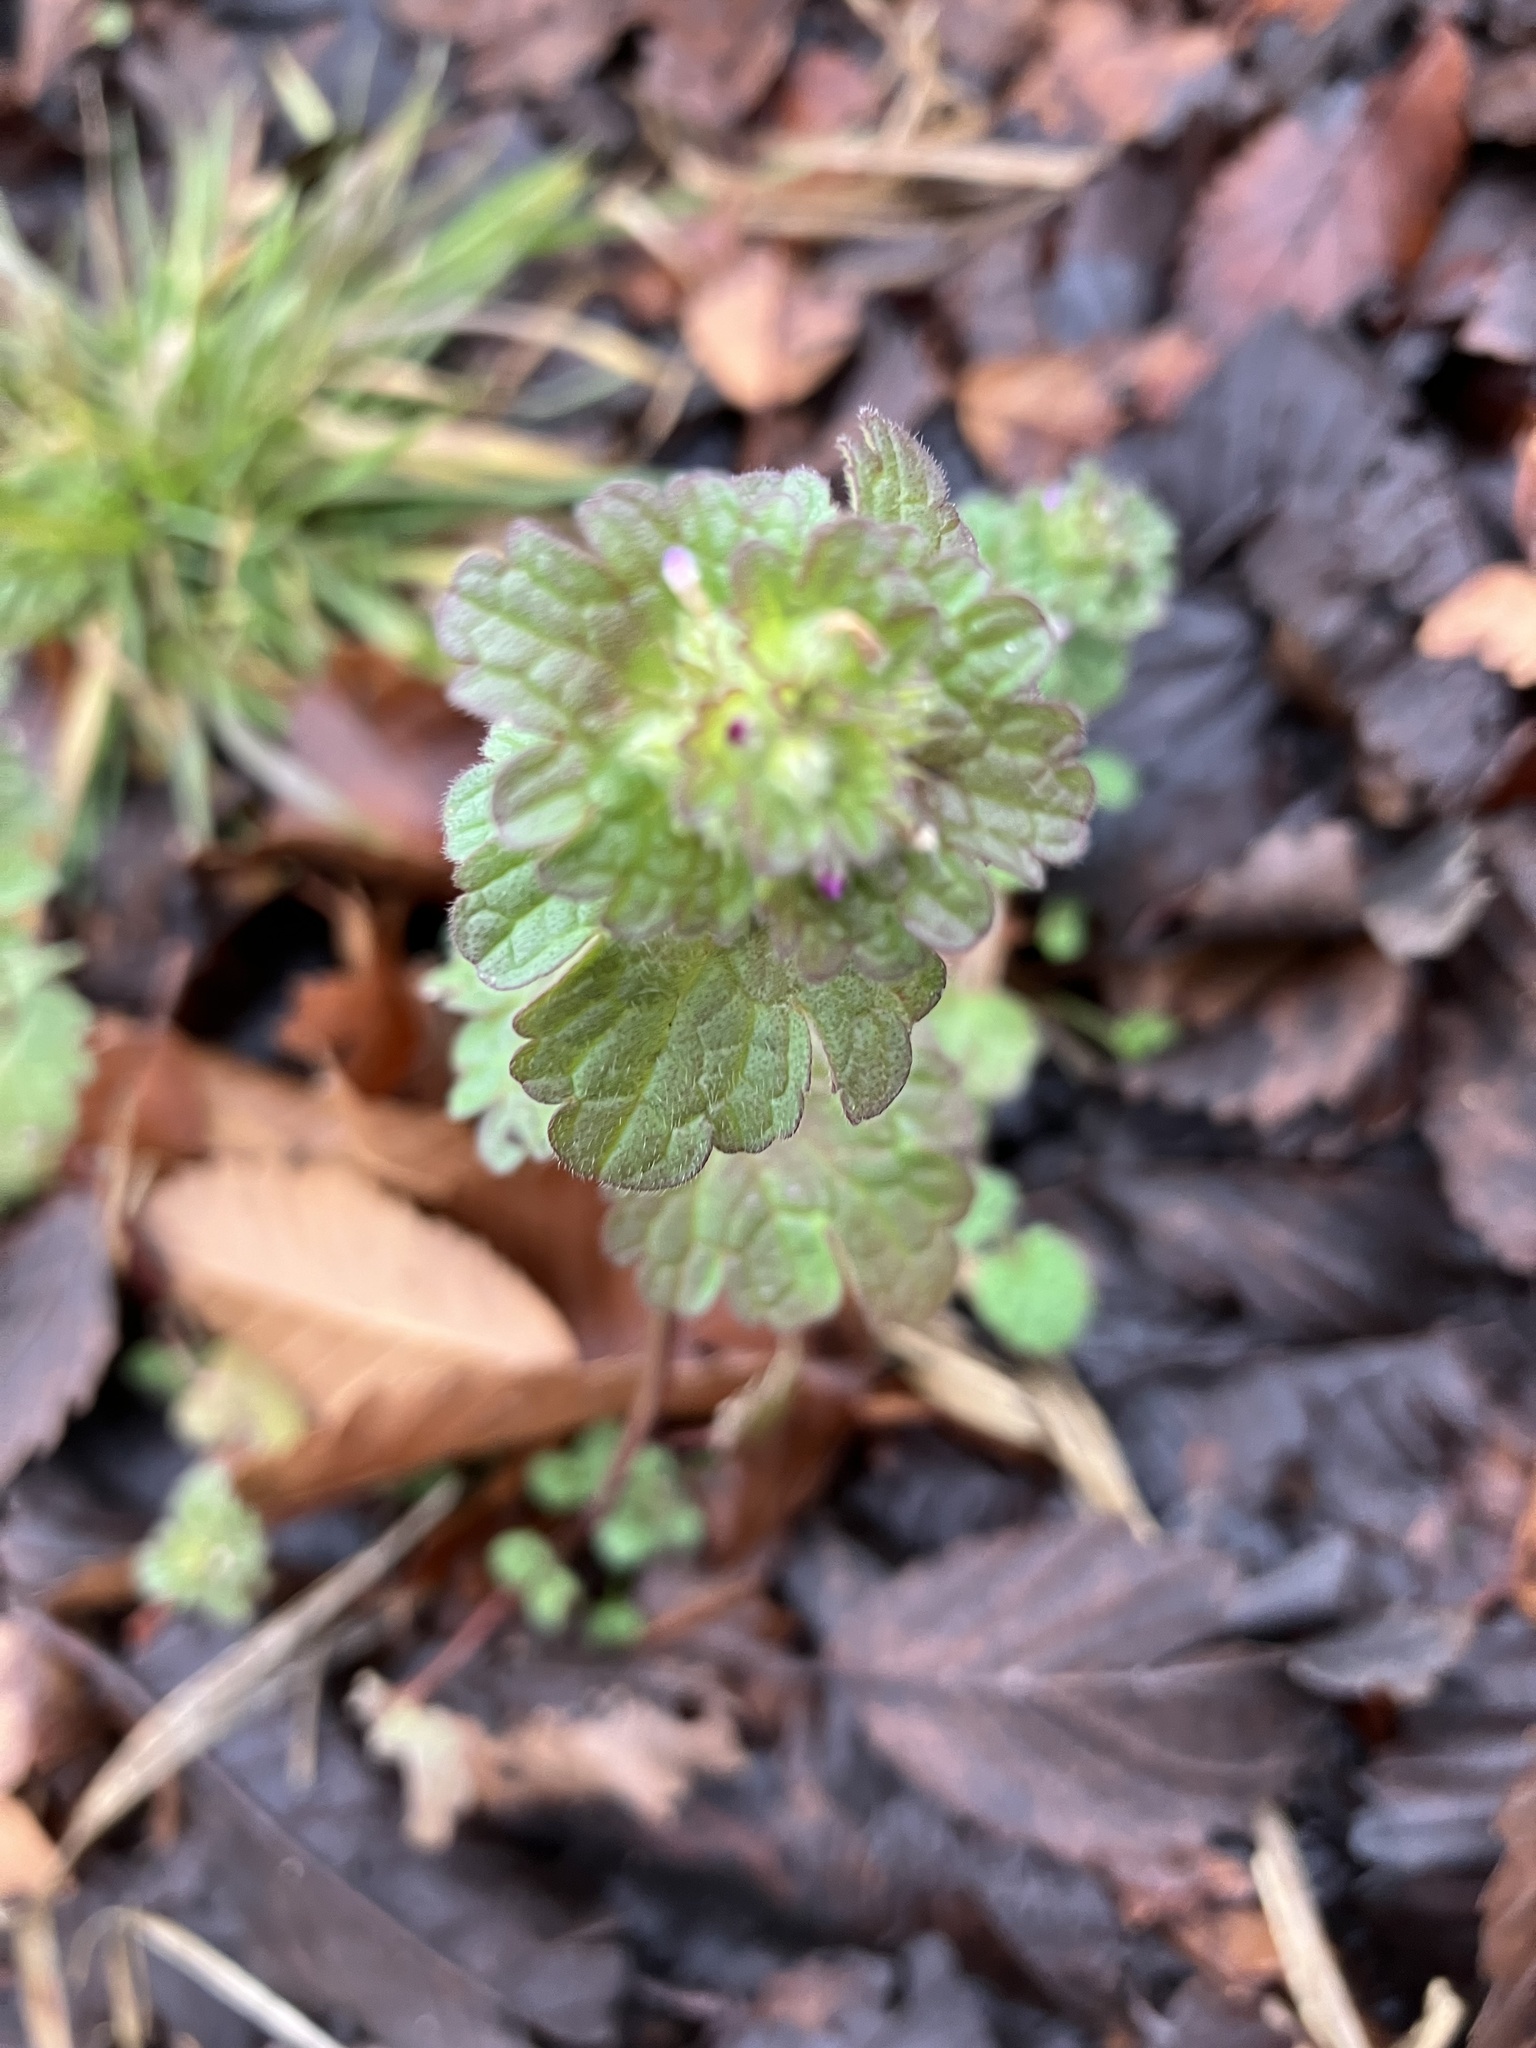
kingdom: Plantae
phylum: Tracheophyta
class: Magnoliopsida
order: Lamiales
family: Lamiaceae
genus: Lamium
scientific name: Lamium amplexicaule
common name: Henbit dead-nettle
